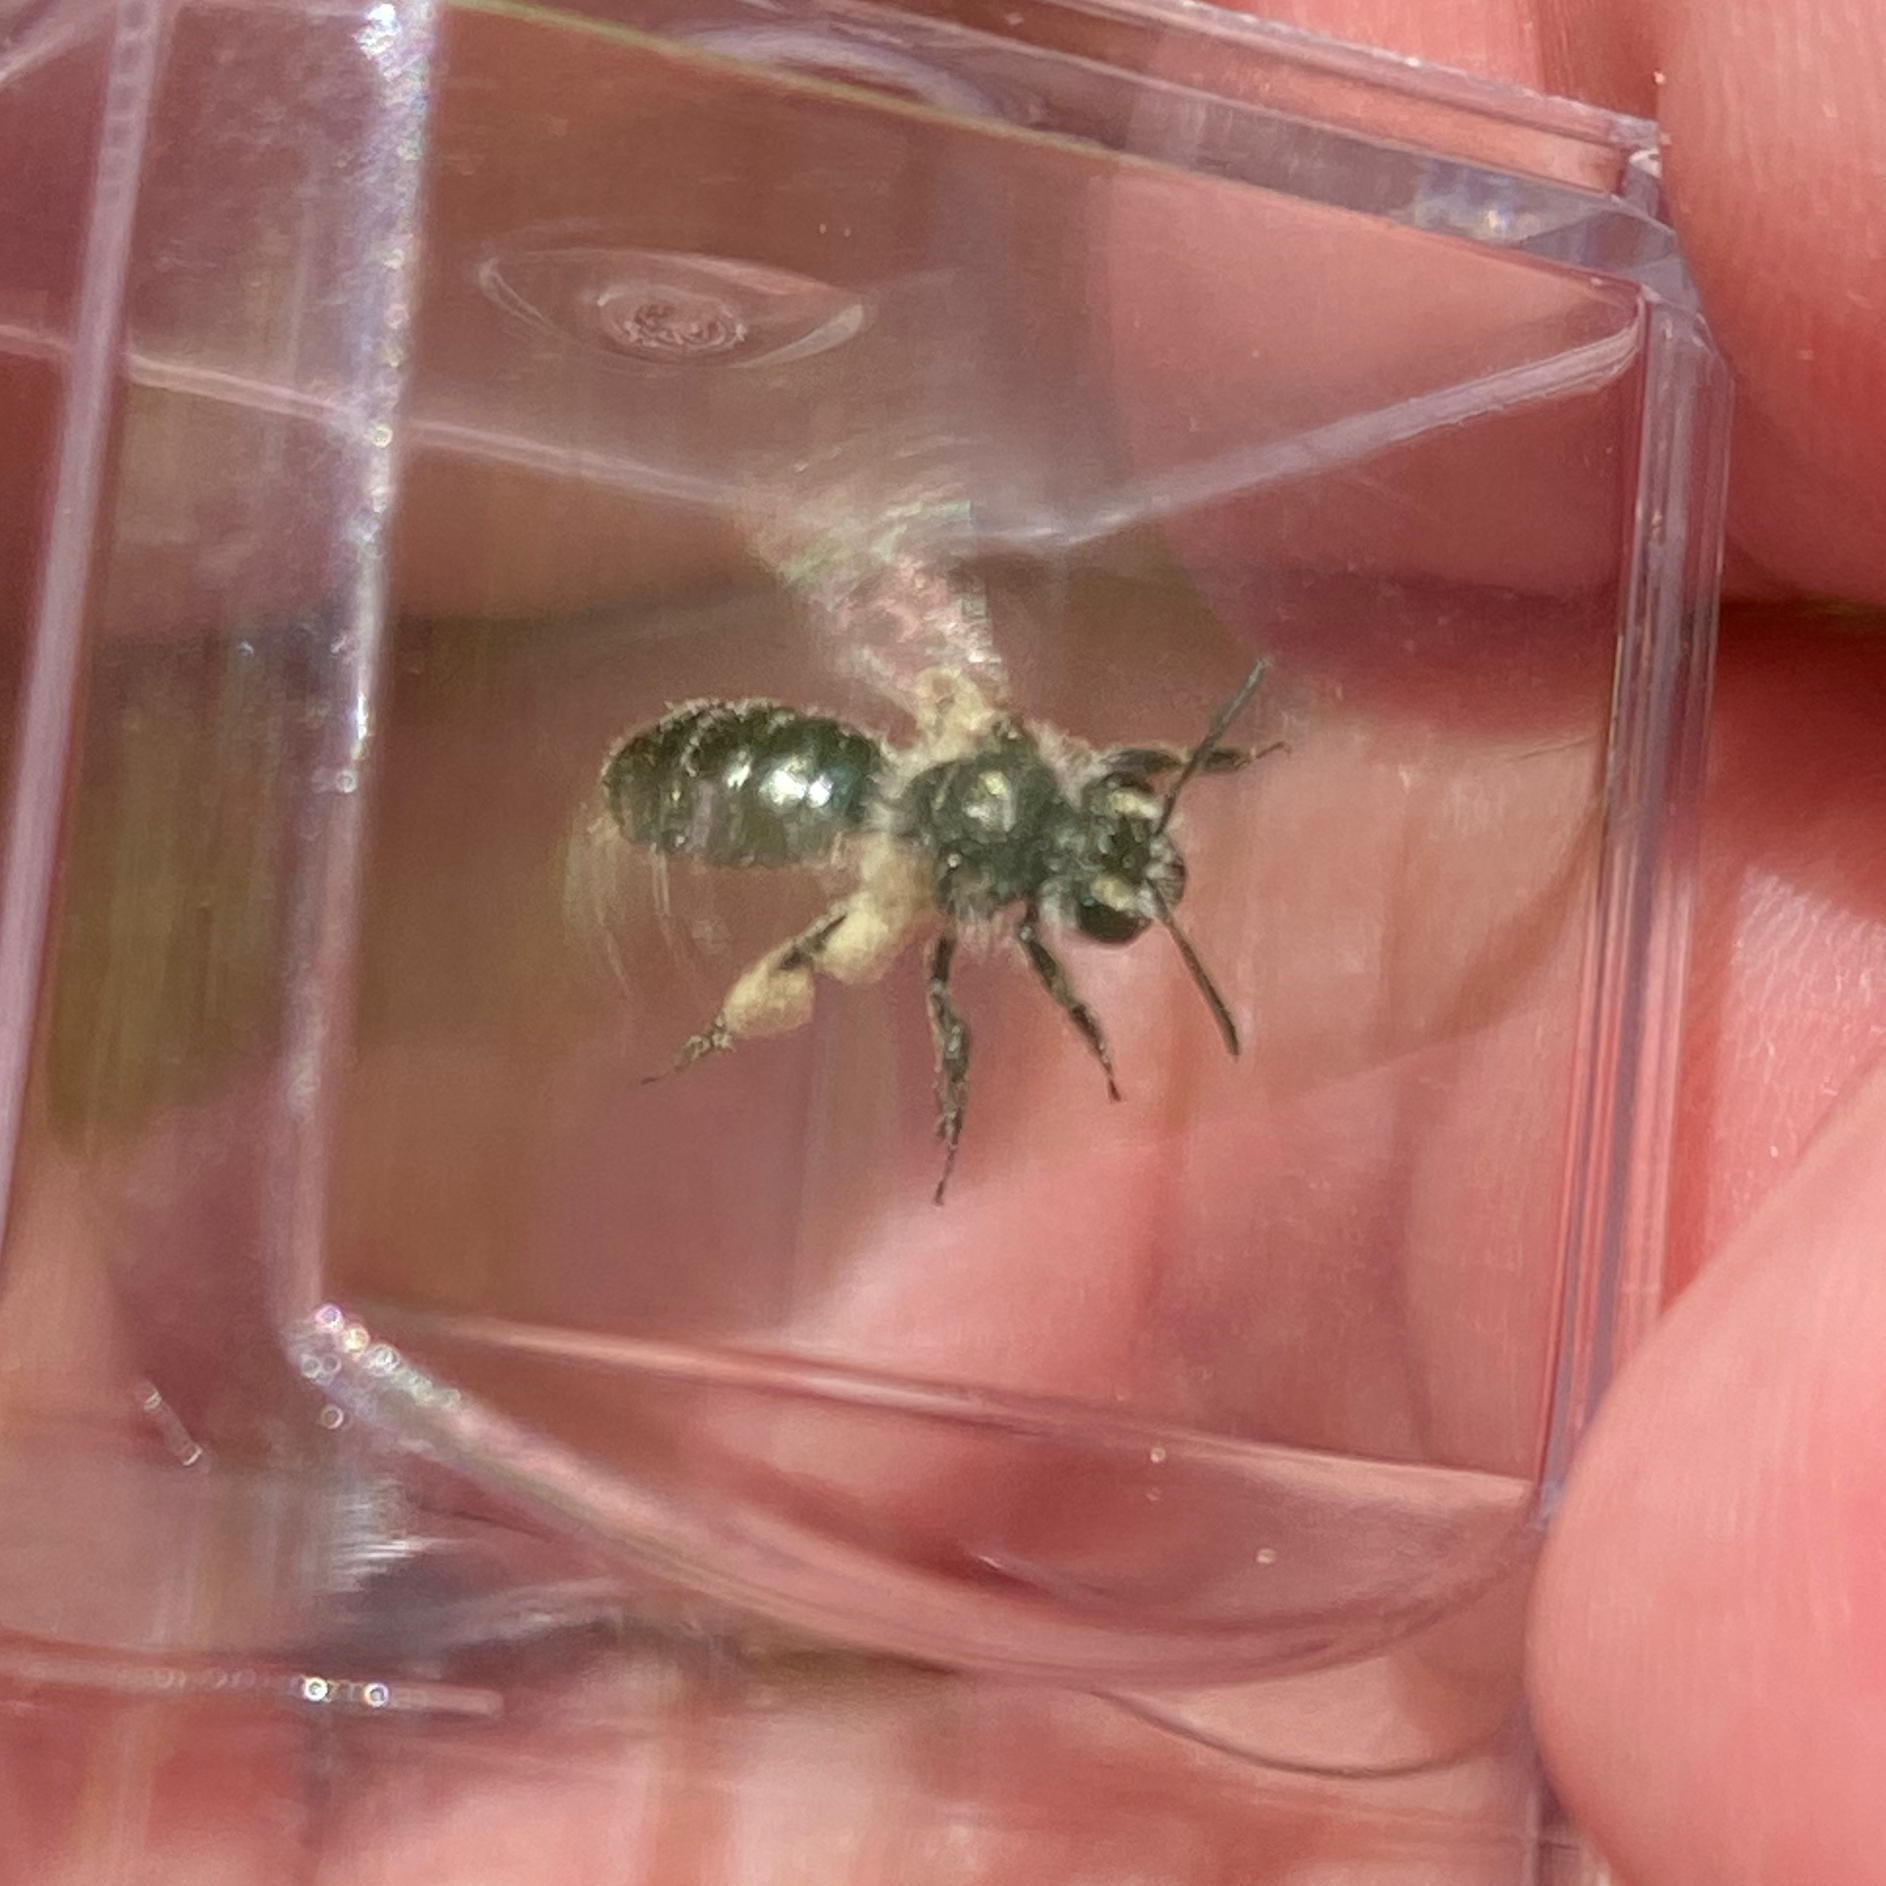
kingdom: Animalia
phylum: Arthropoda
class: Insecta
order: Hymenoptera
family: Andrenidae
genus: Andrena
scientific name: Andrena polemonii
